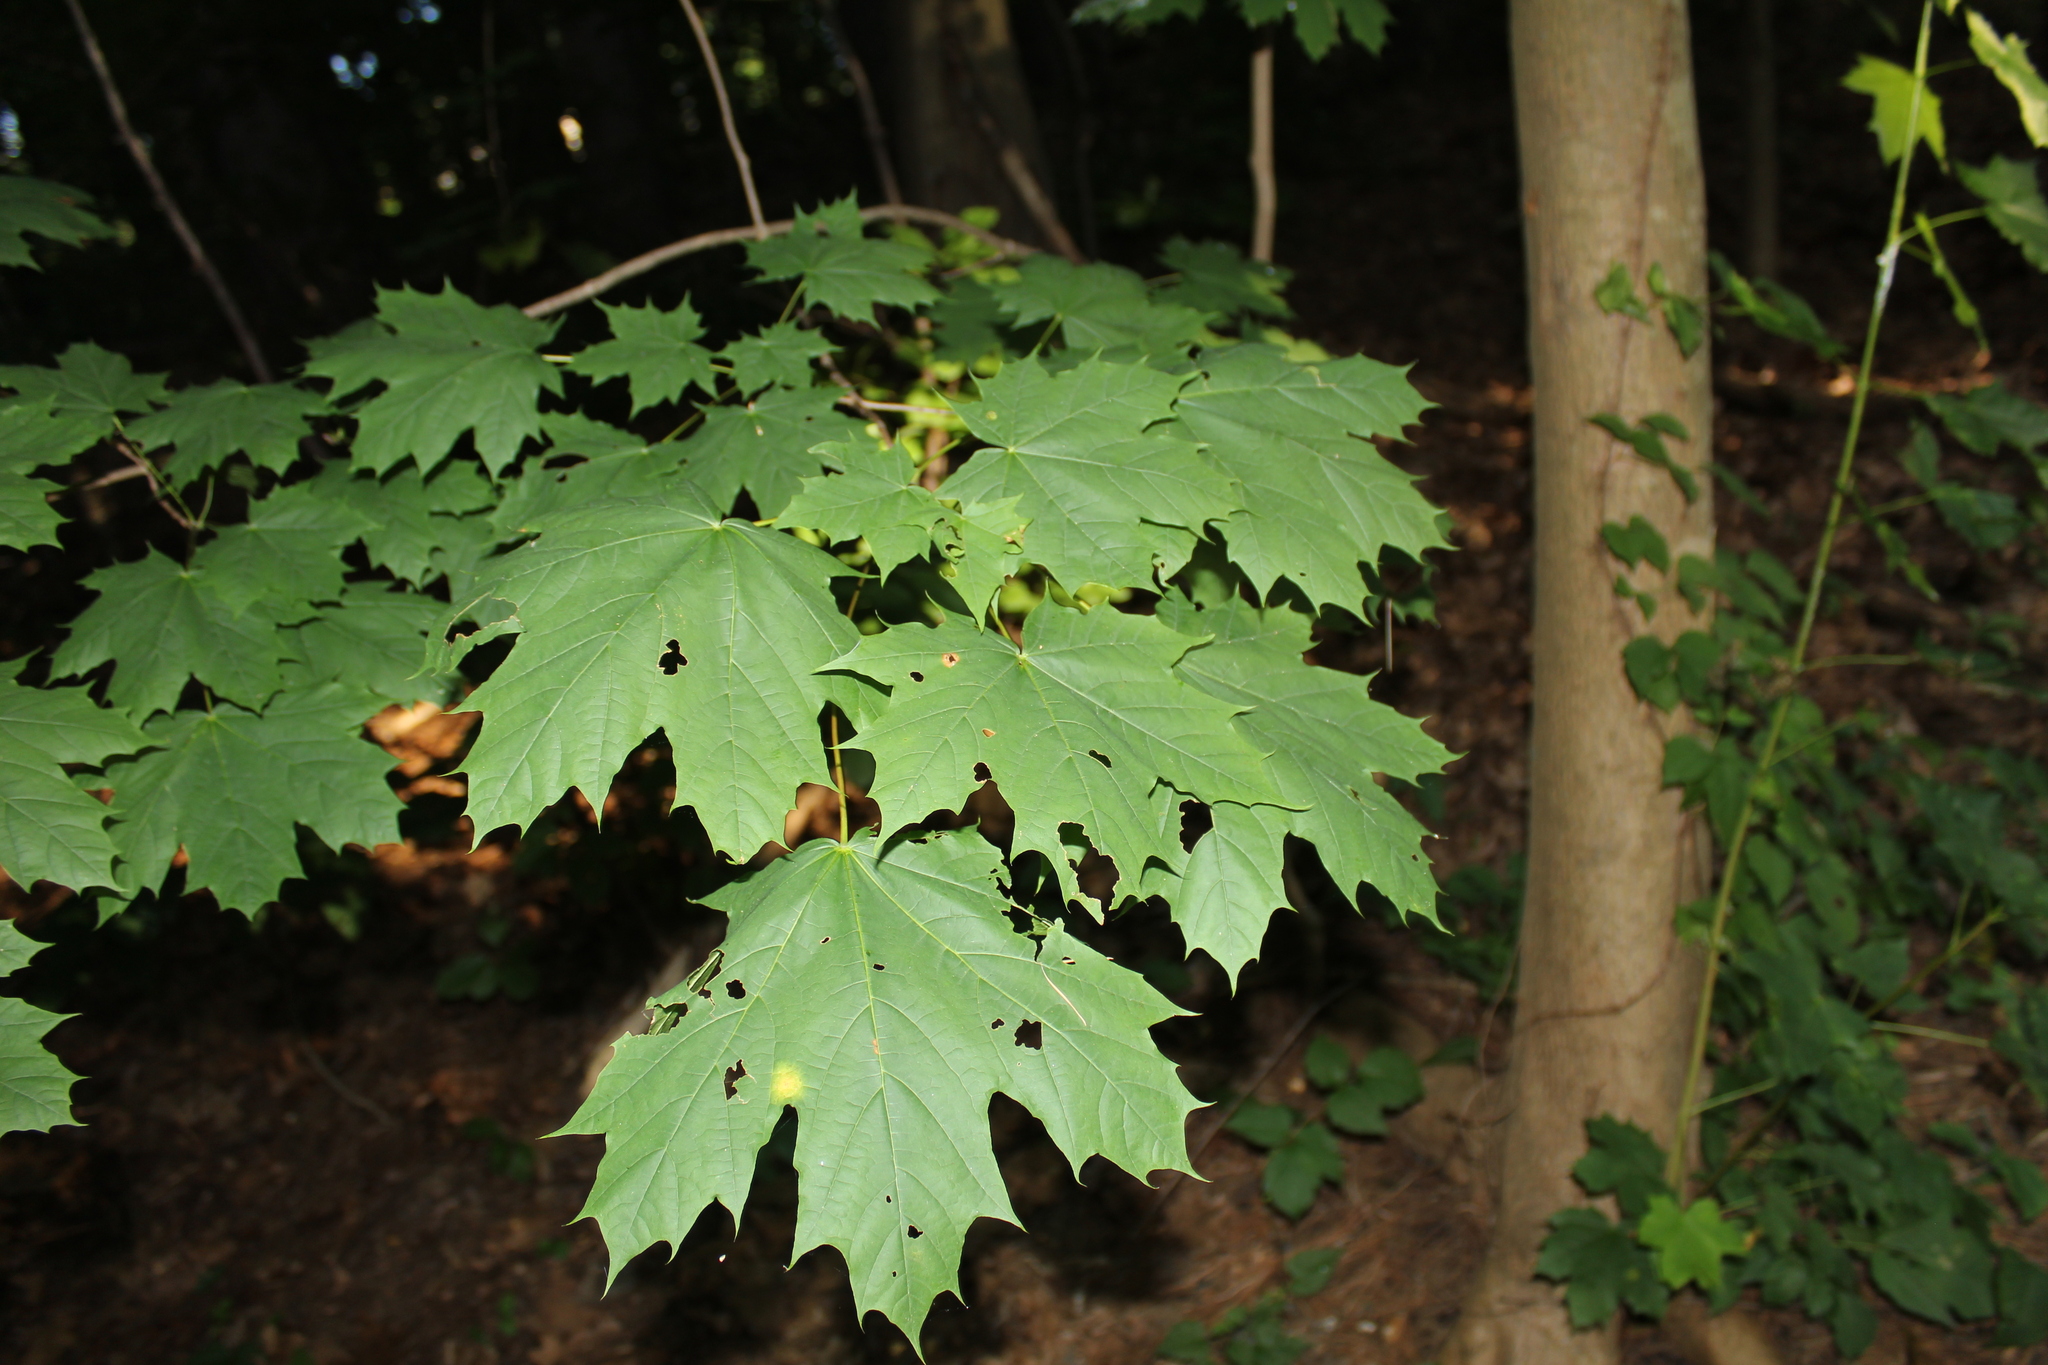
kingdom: Plantae
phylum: Tracheophyta
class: Magnoliopsida
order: Sapindales
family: Sapindaceae
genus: Acer
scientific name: Acer platanoides
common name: Norway maple
